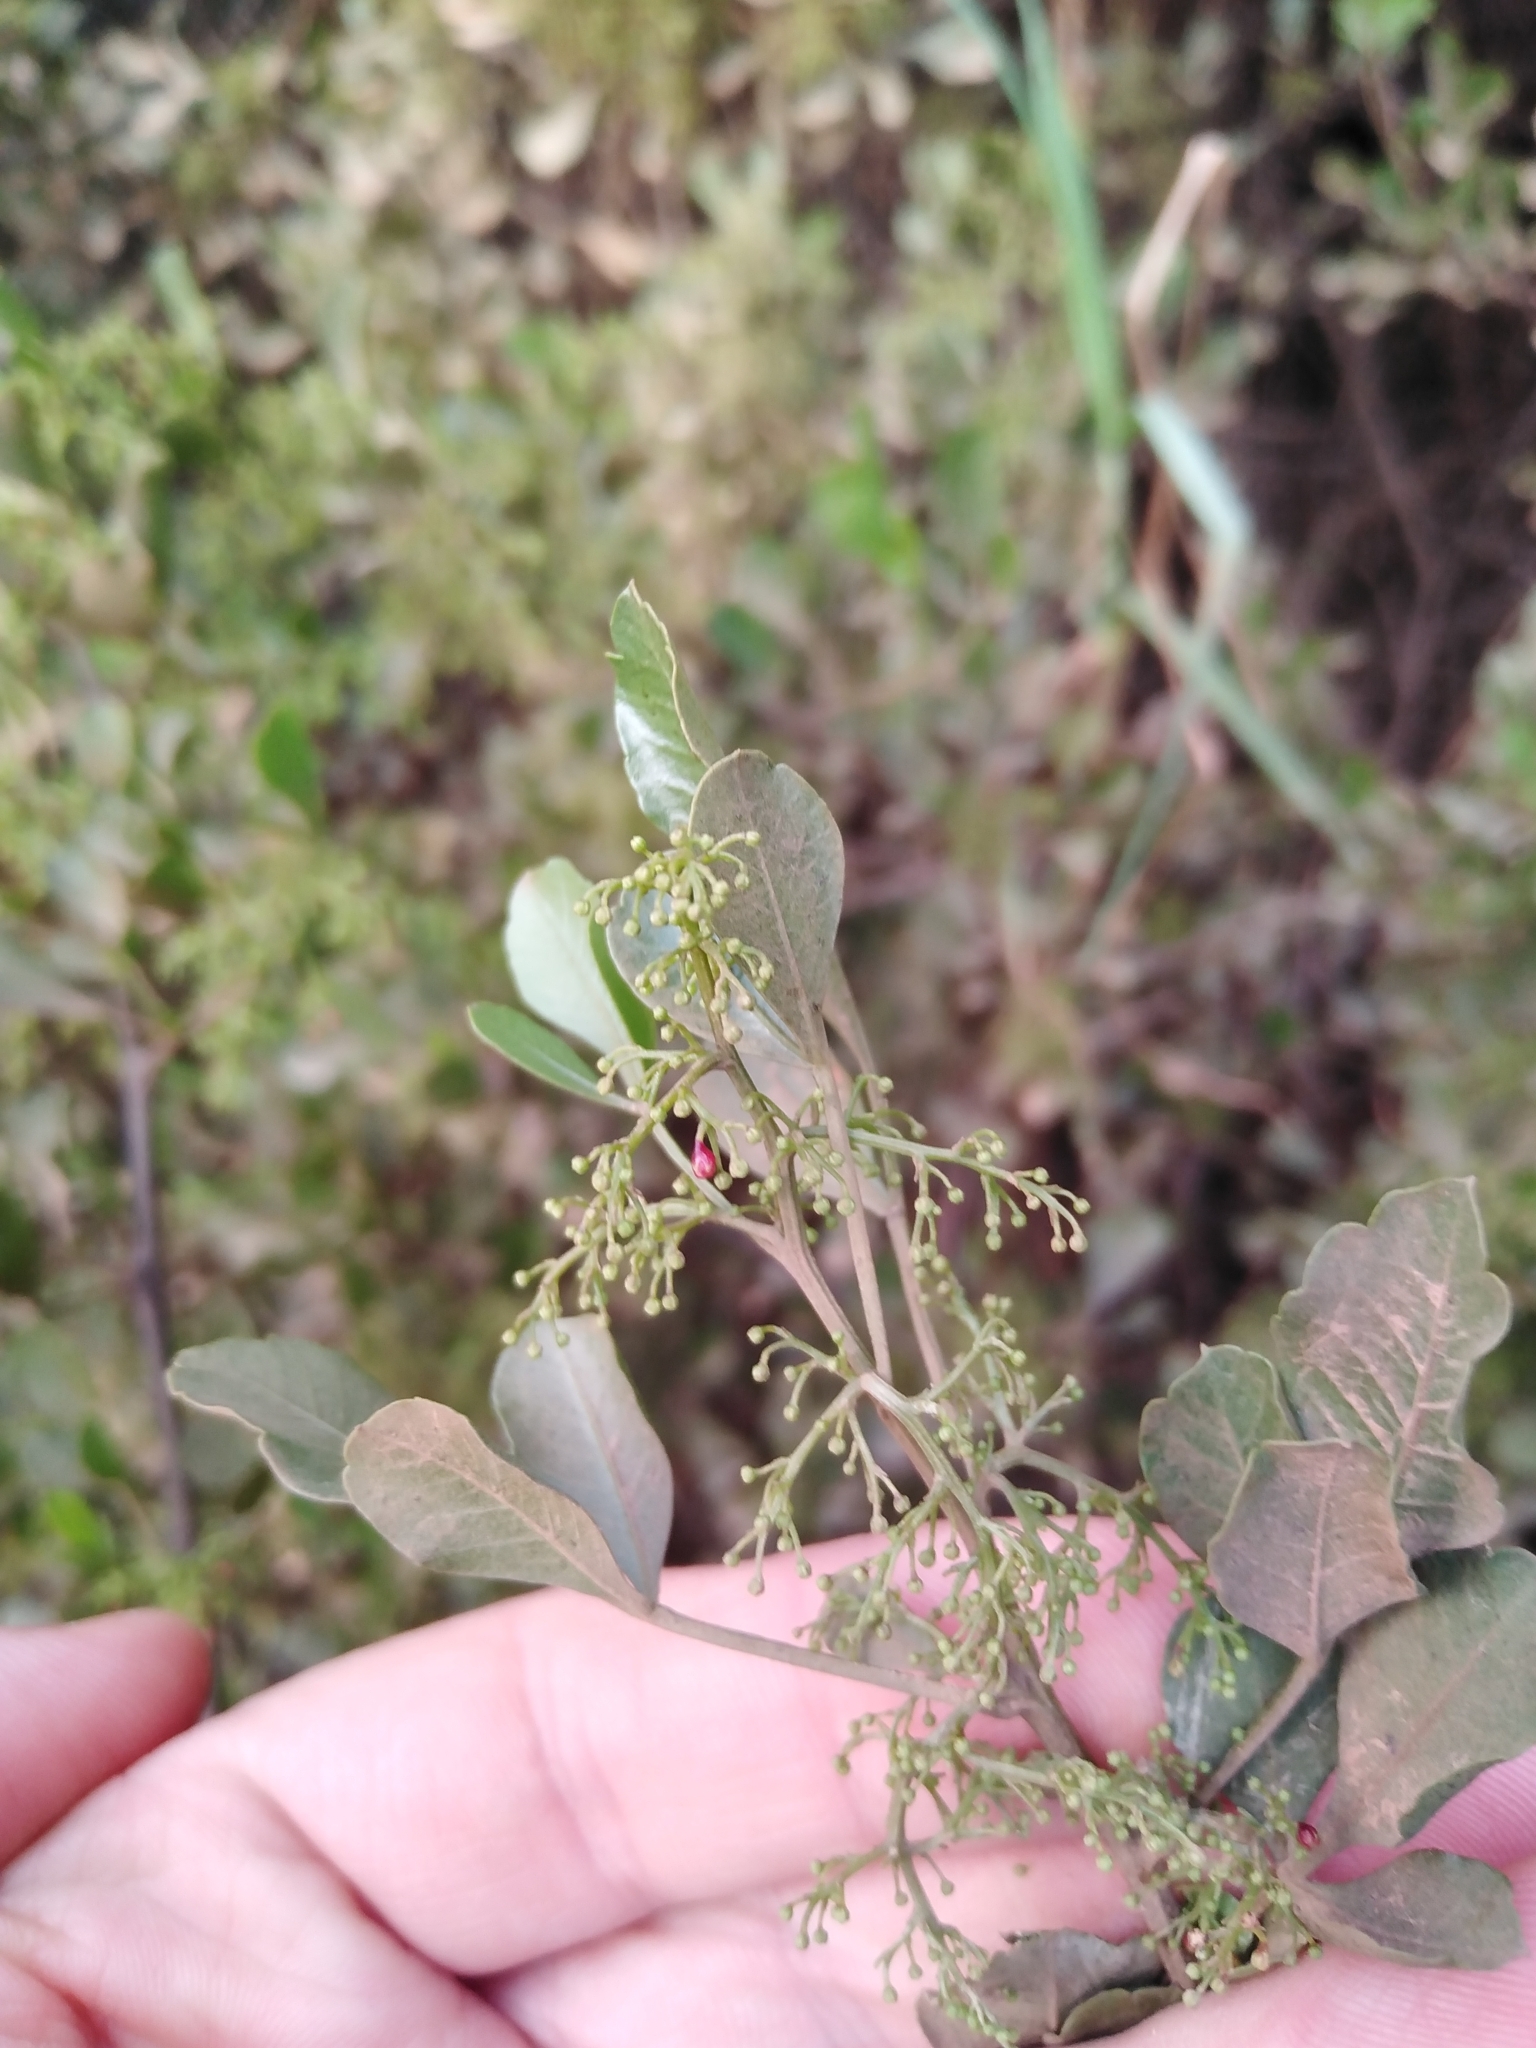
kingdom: Plantae
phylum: Tracheophyta
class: Magnoliopsida
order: Sapindales
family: Anacardiaceae
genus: Searsia
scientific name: Searsia undulata
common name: Namaqua kunibush
